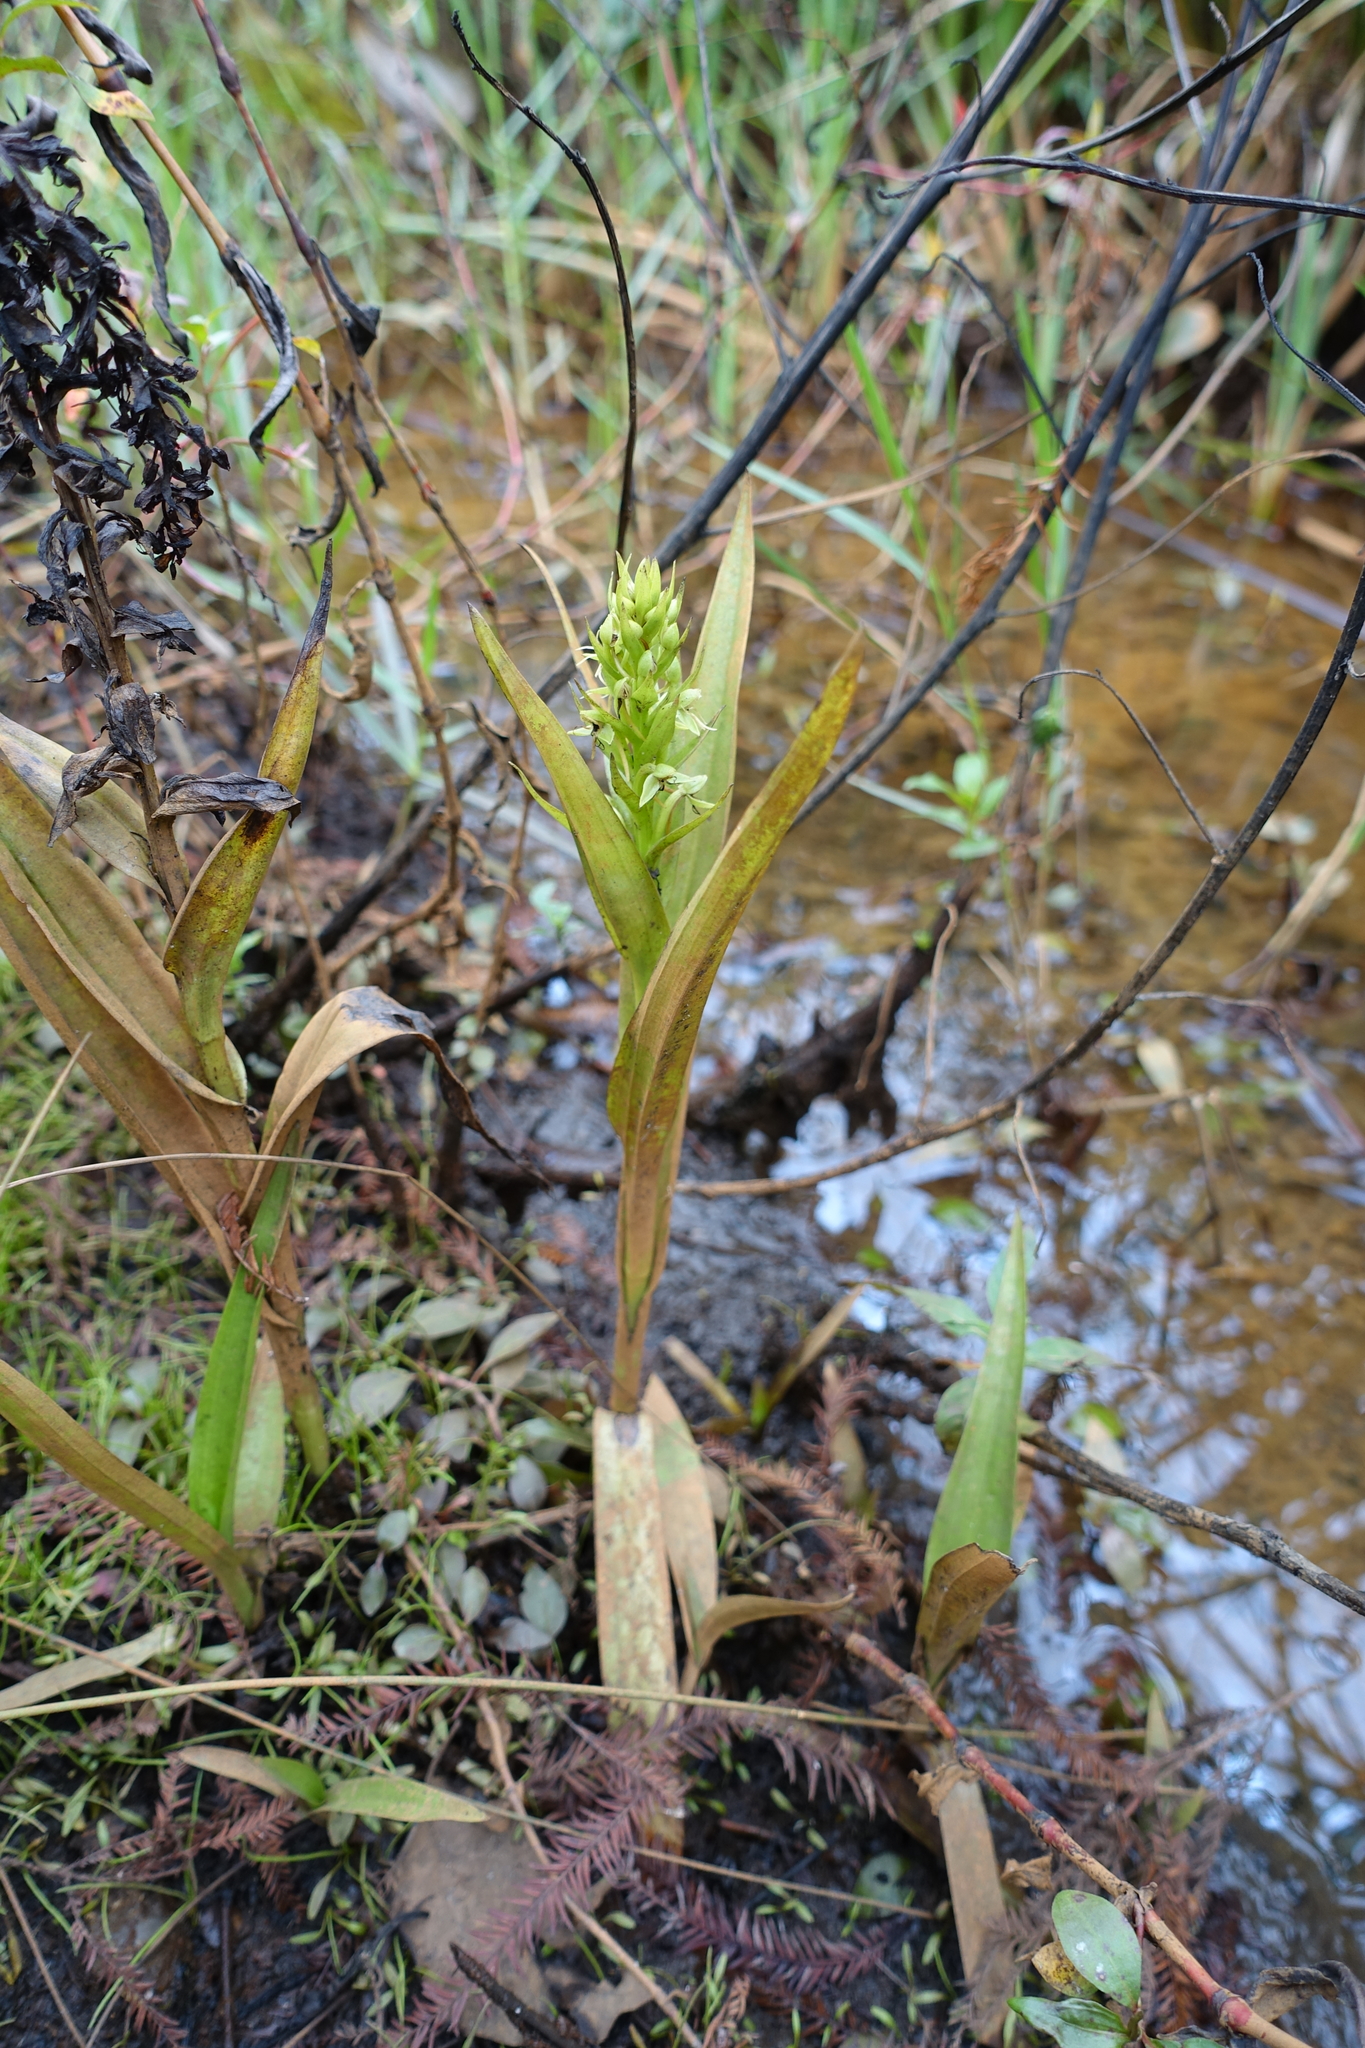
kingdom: Plantae
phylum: Tracheophyta
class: Liliopsida
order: Asparagales
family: Orchidaceae
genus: Habenaria
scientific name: Habenaria repens
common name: Water orchid
